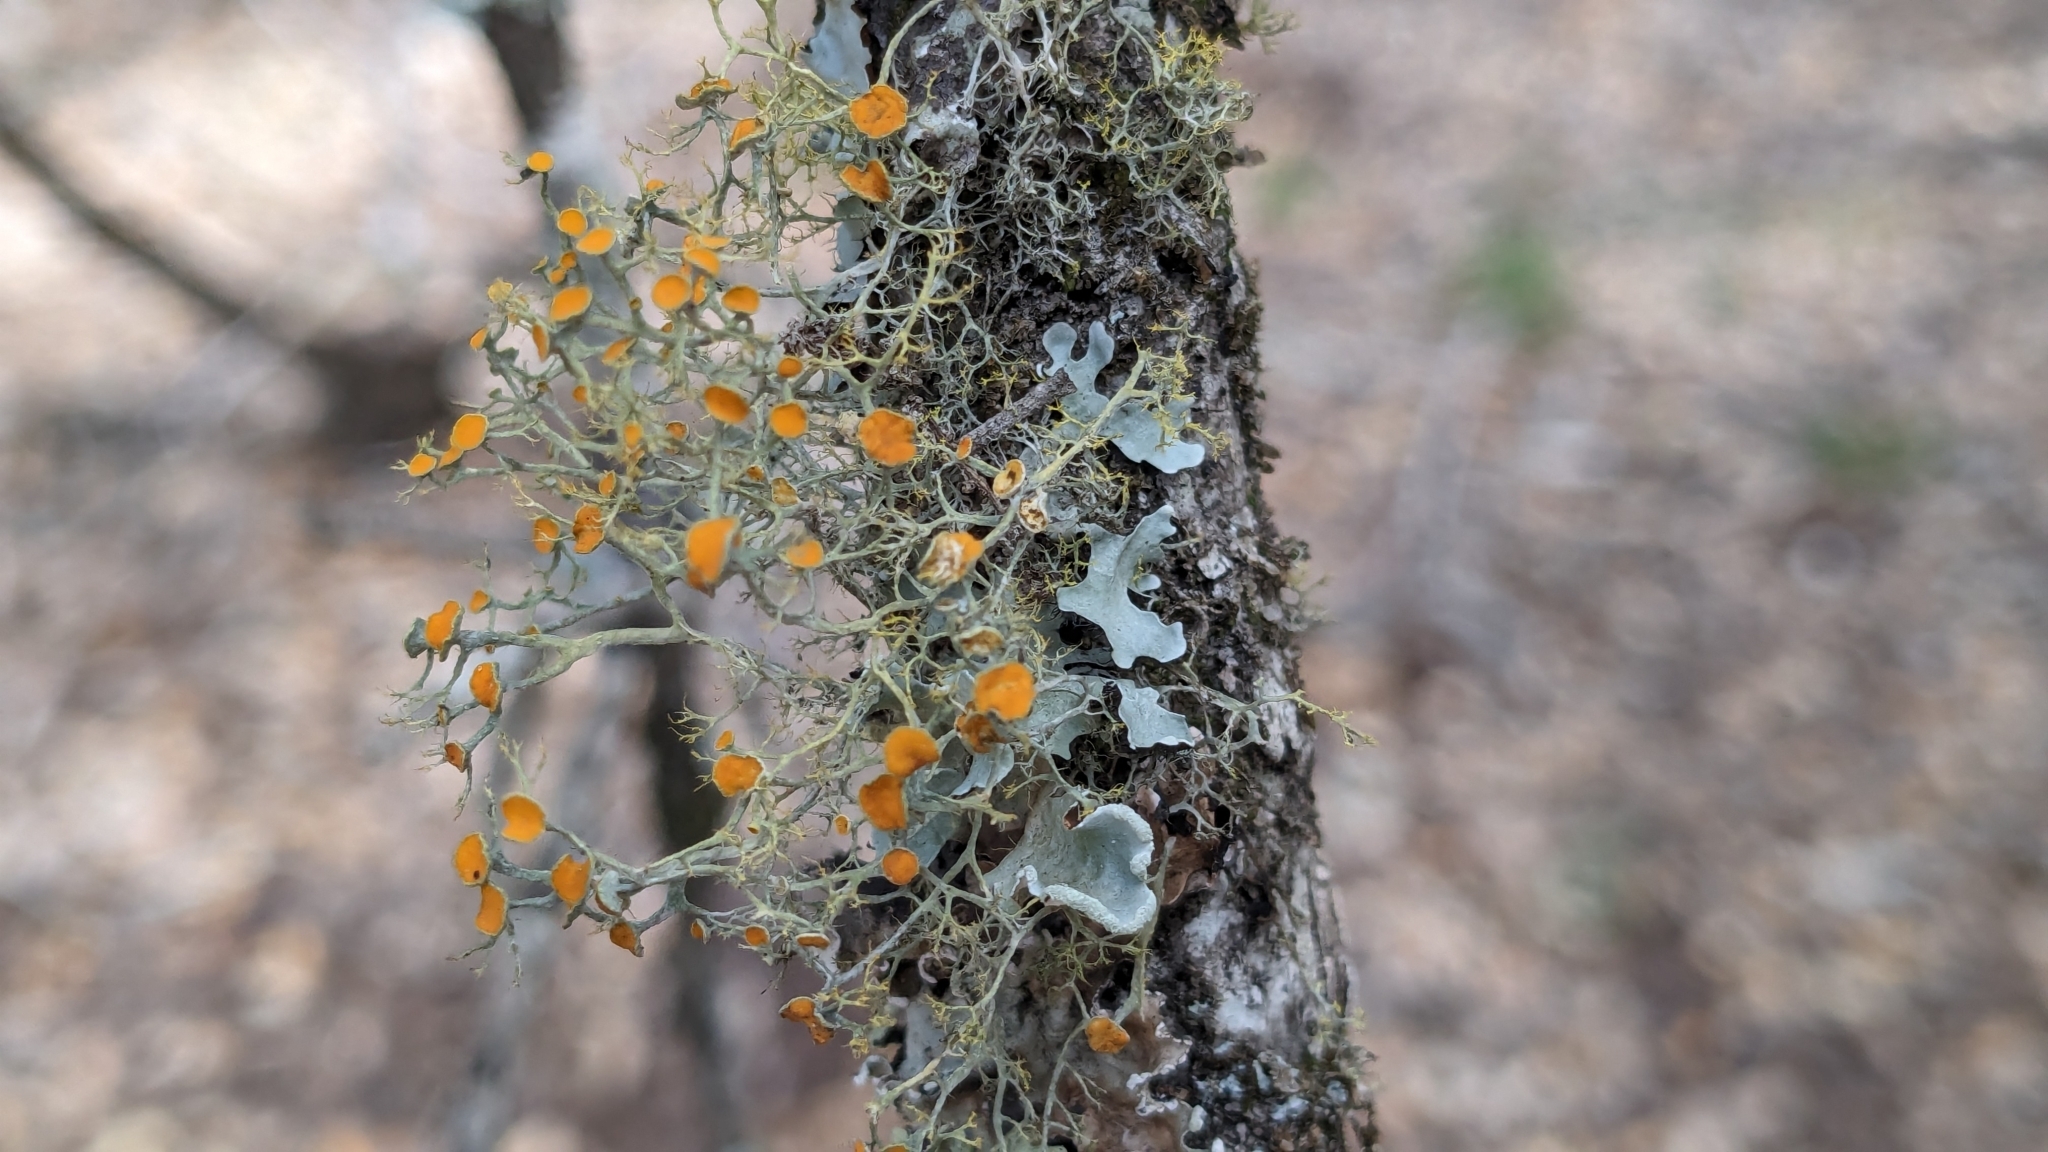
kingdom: Fungi
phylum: Ascomycota
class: Lecanoromycetes
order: Teloschistales
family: Teloschistaceae
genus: Teloschistes
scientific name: Teloschistes exilis
